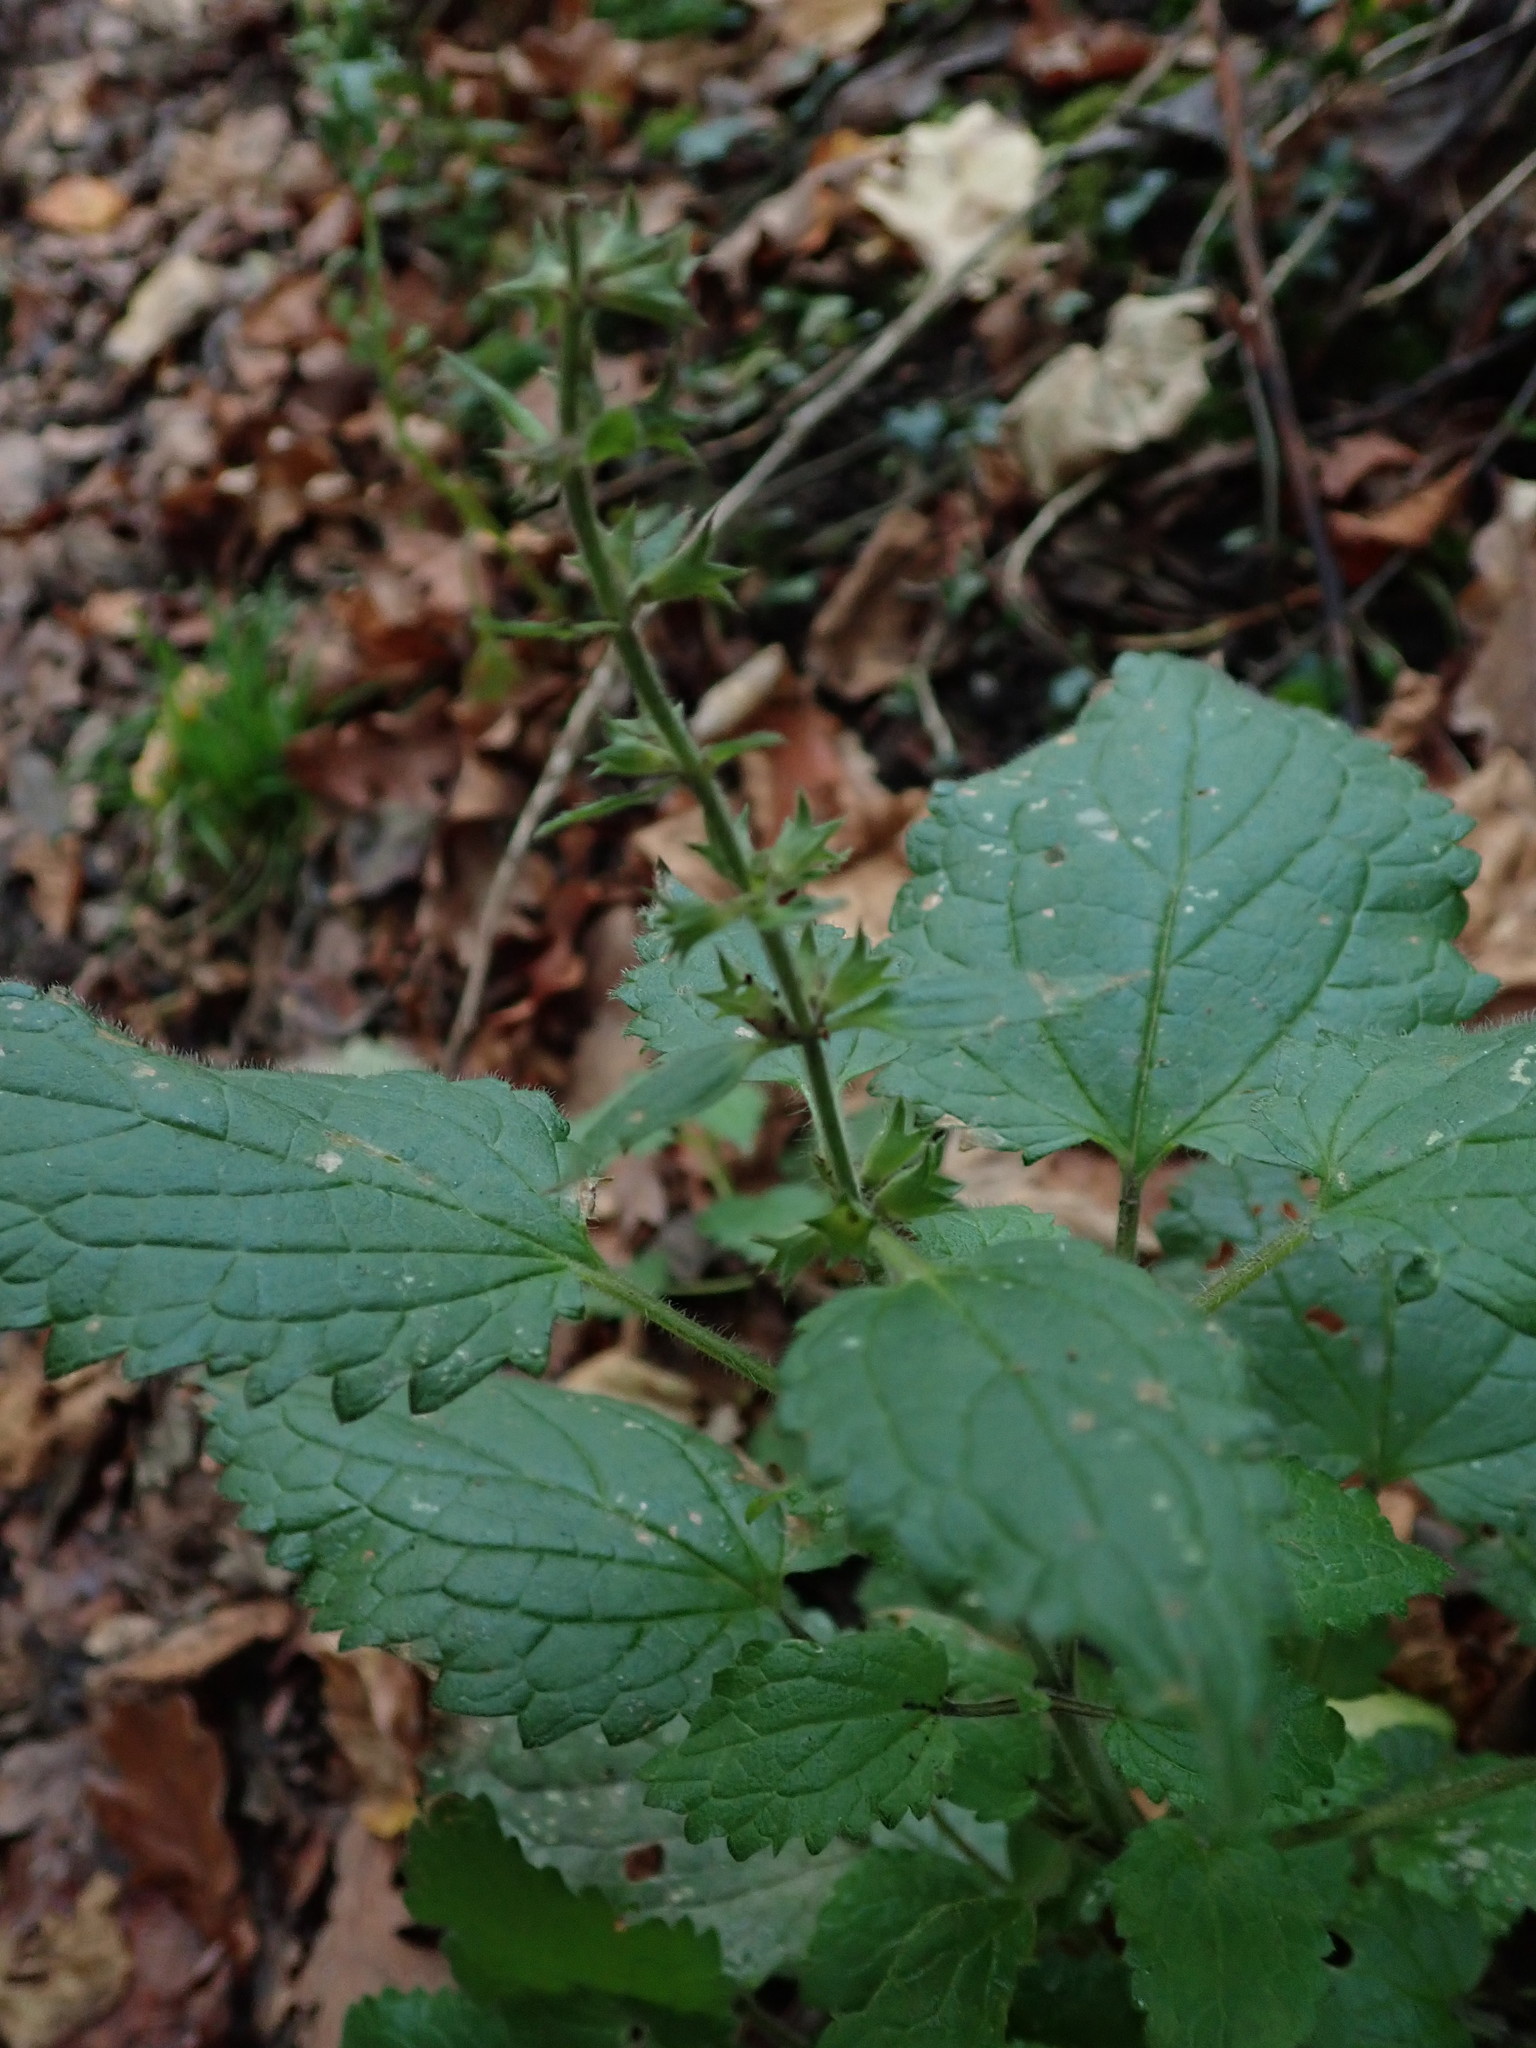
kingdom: Plantae
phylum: Tracheophyta
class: Magnoliopsida
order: Lamiales
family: Lamiaceae
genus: Stachys
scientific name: Stachys sylvatica
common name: Hedge woundwort
